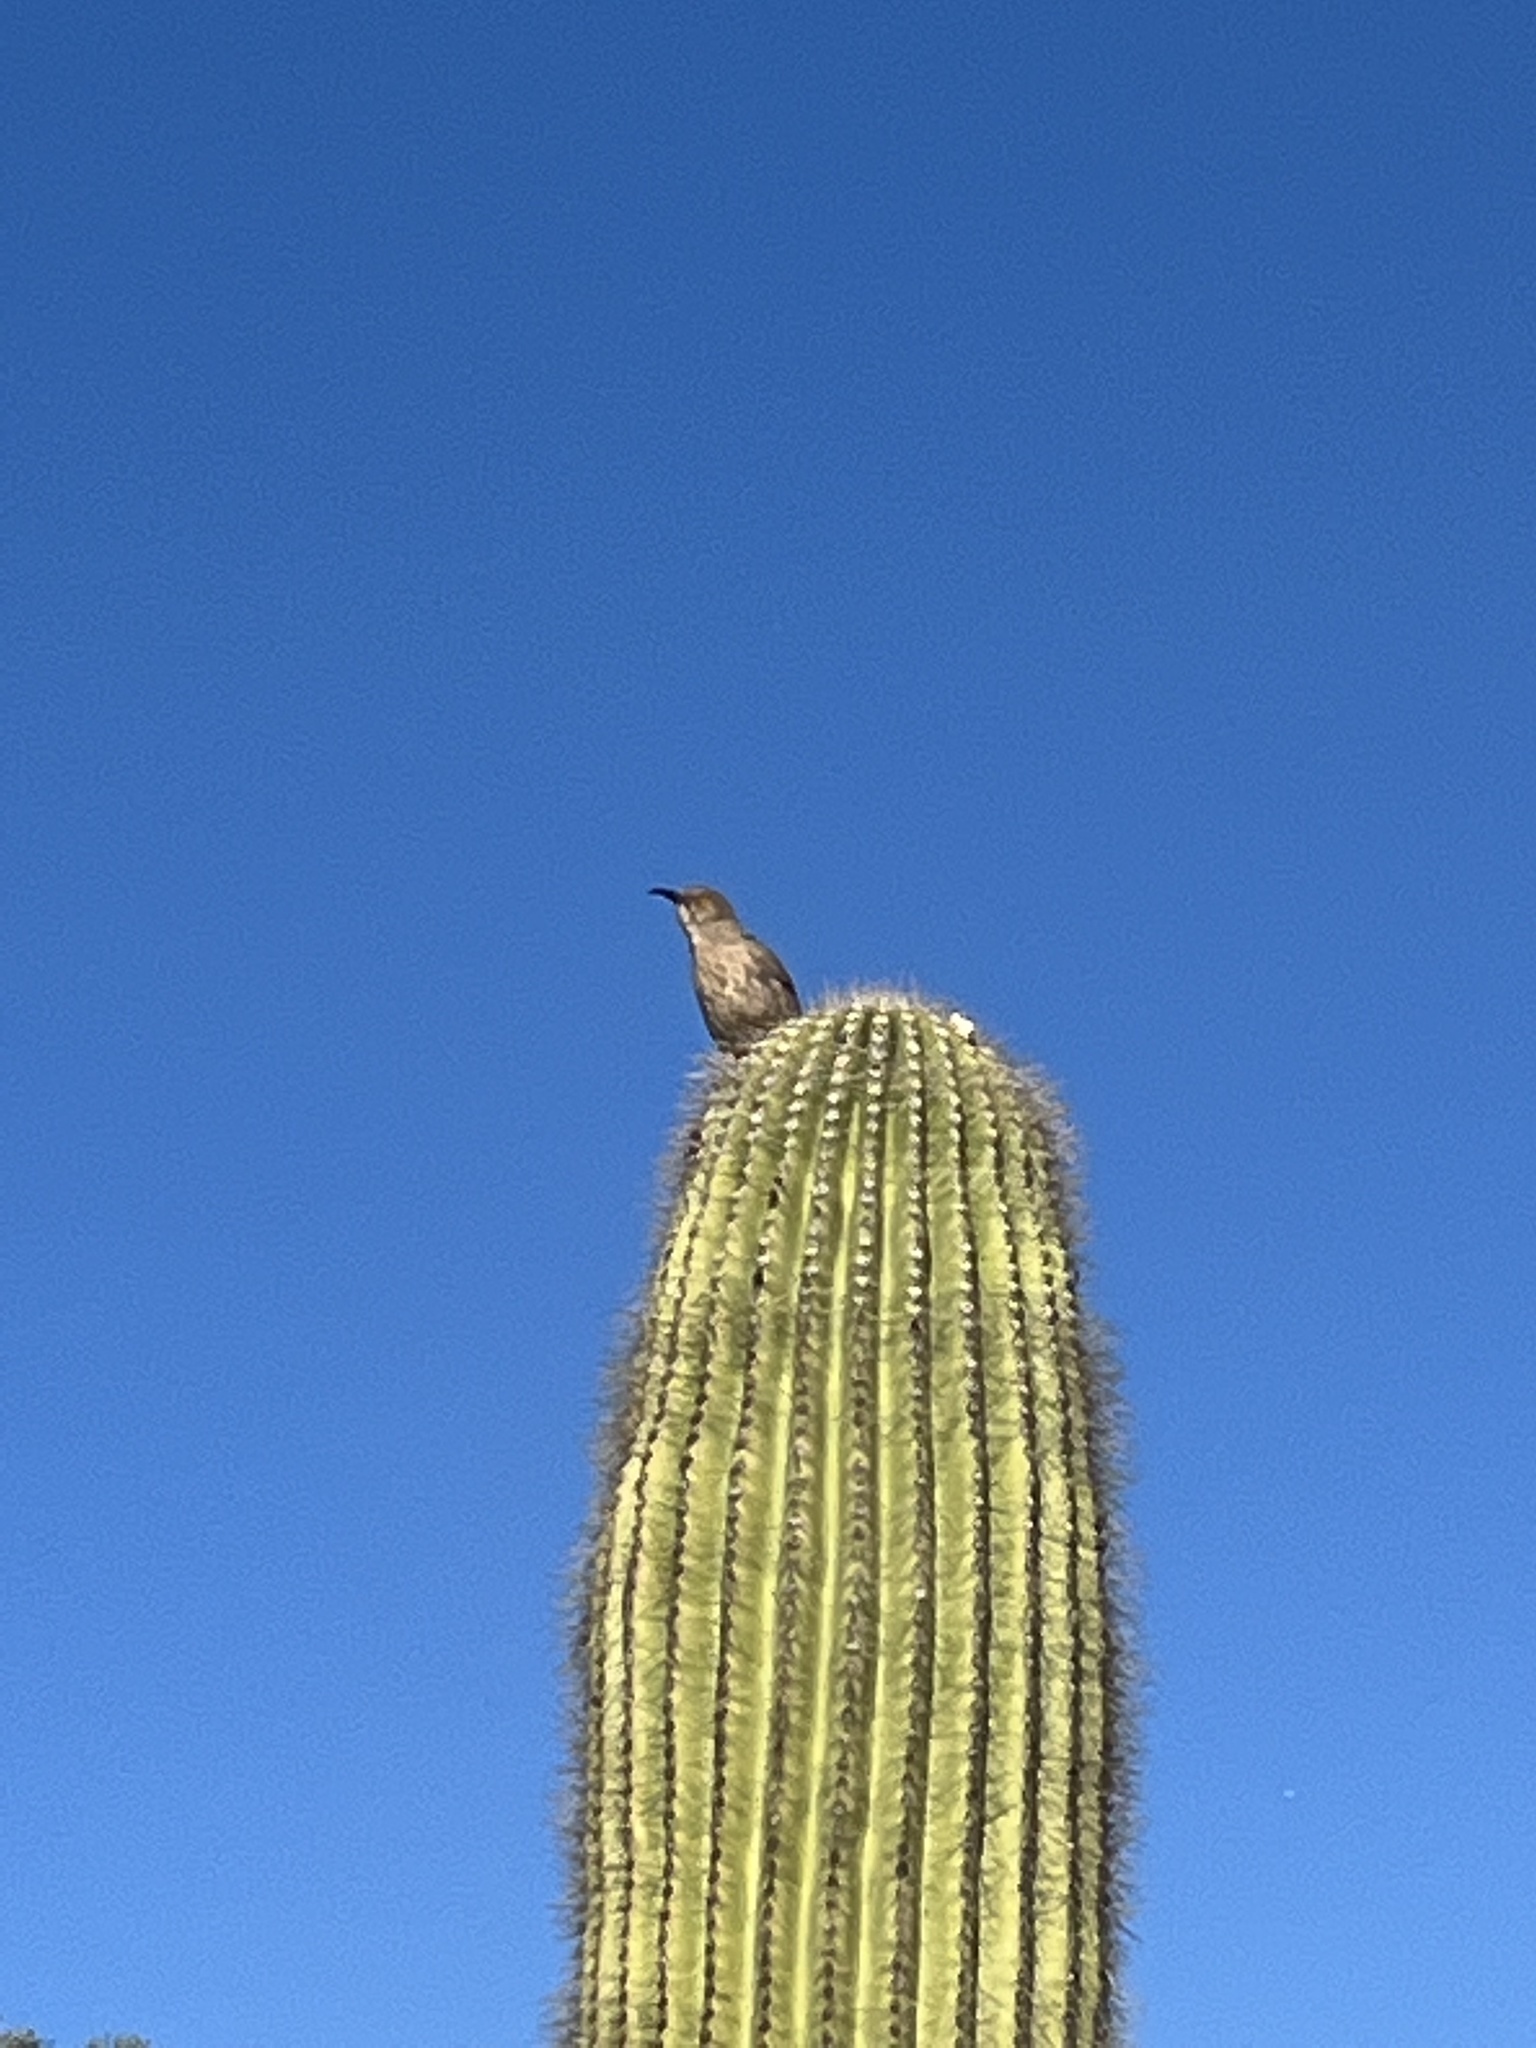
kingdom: Animalia
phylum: Chordata
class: Aves
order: Passeriformes
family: Mimidae
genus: Toxostoma
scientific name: Toxostoma curvirostre
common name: Curve-billed thrasher
